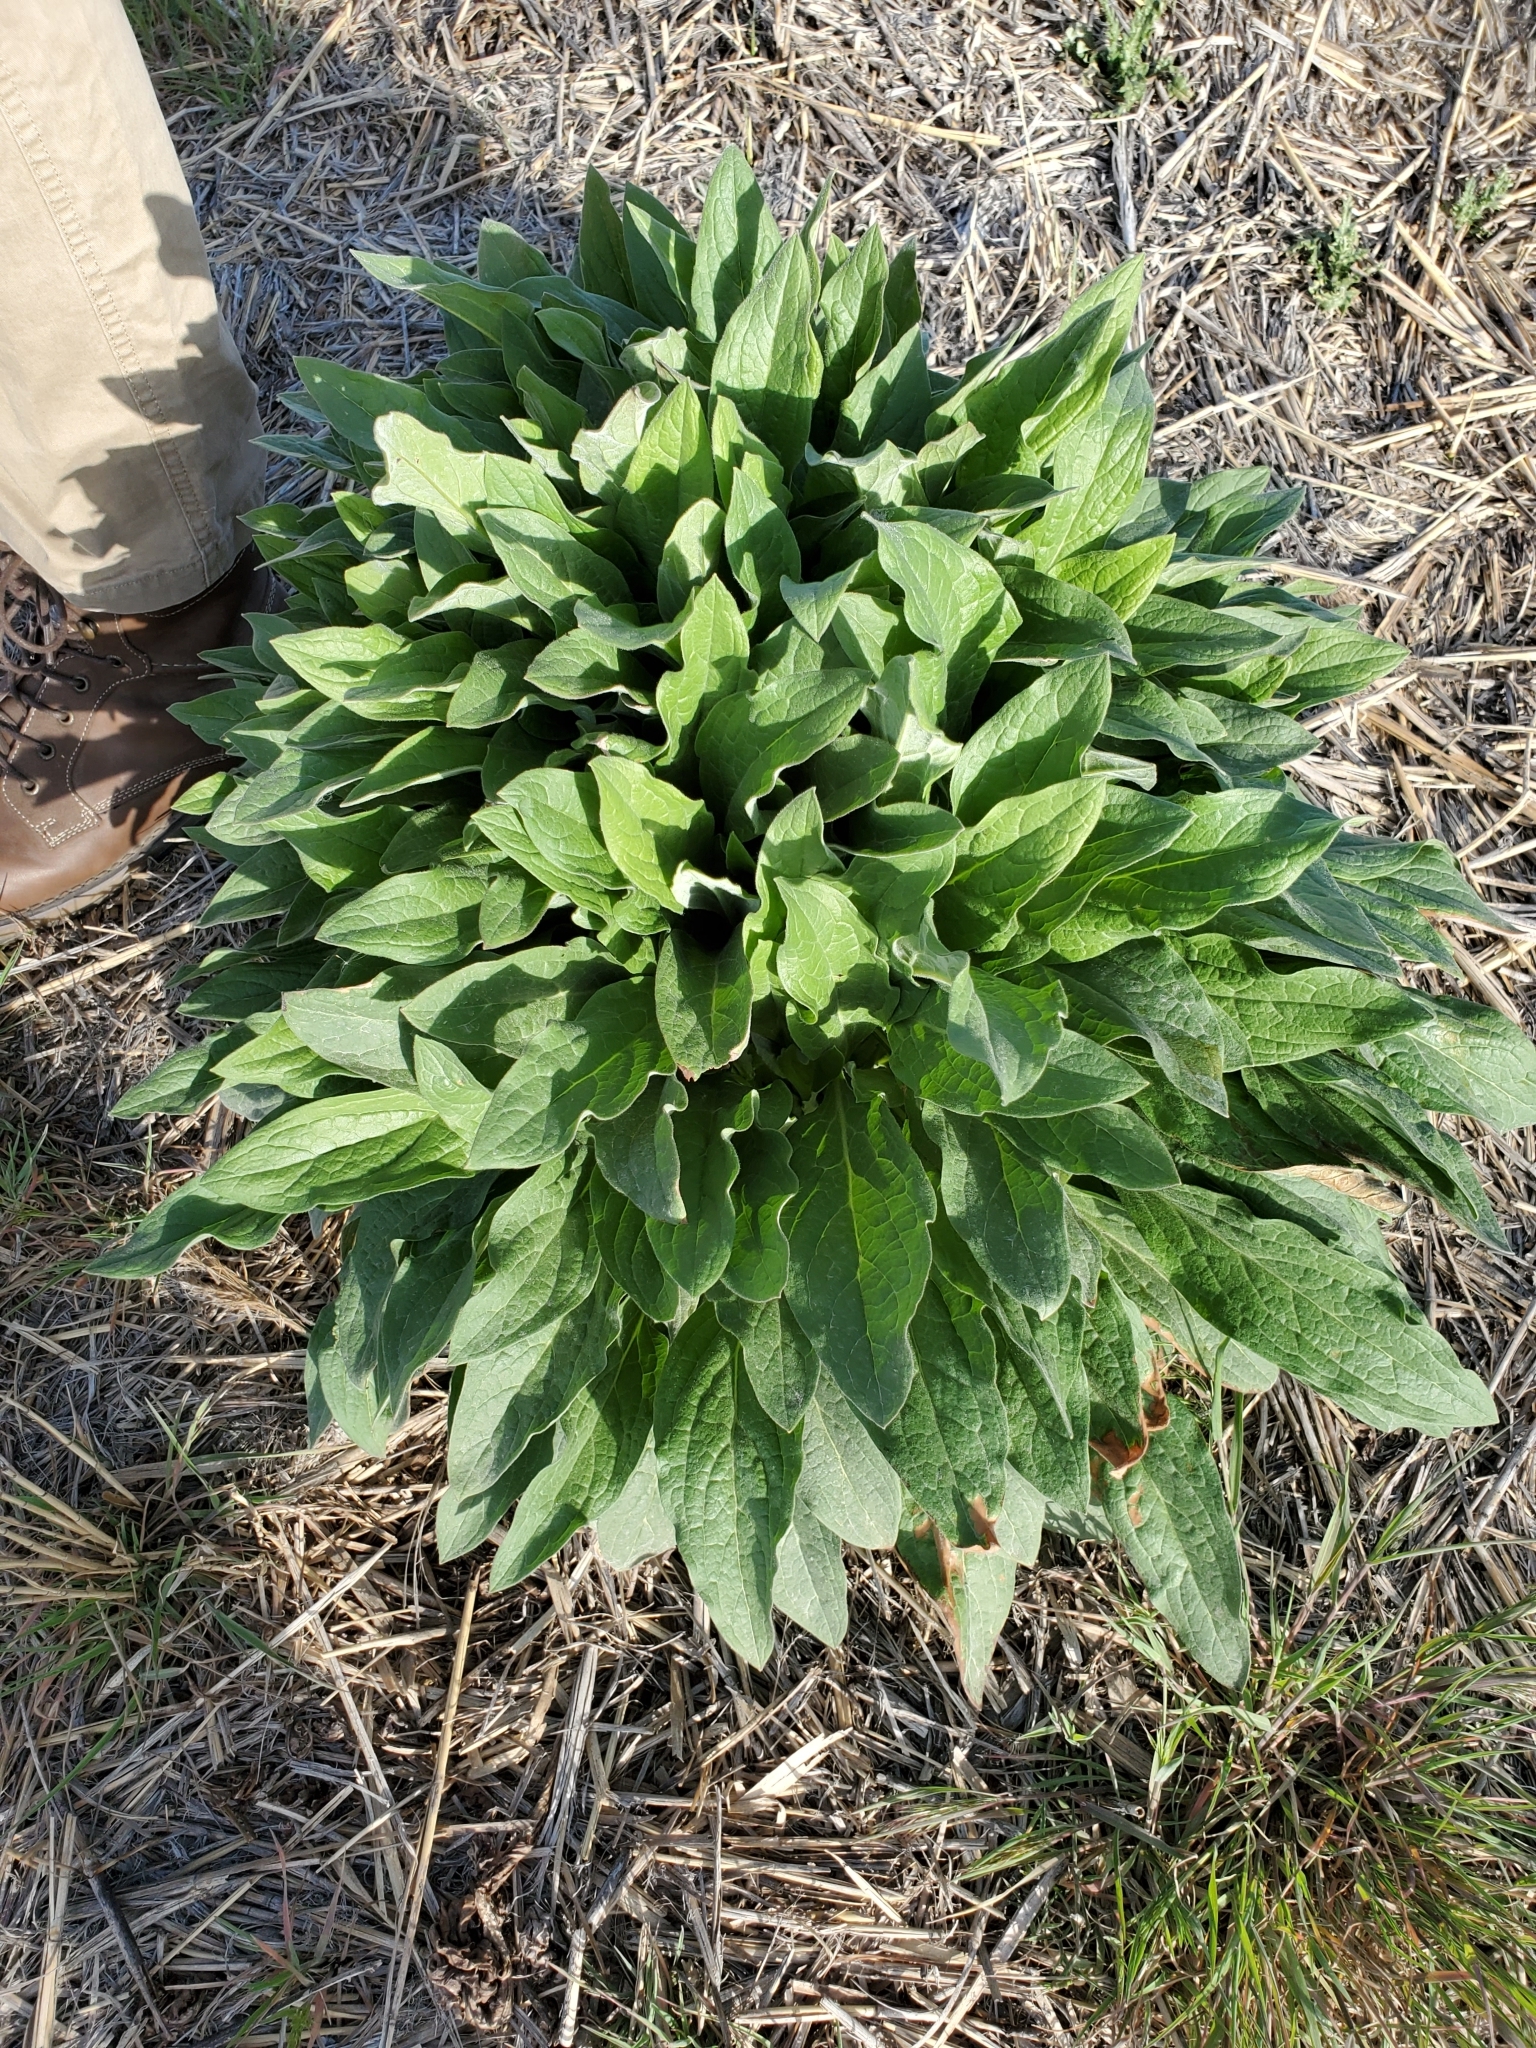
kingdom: Plantae
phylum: Tracheophyta
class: Magnoliopsida
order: Boraginales
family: Boraginaceae
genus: Cynoglossum
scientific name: Cynoglossum officinale
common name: Hound's-tongue
